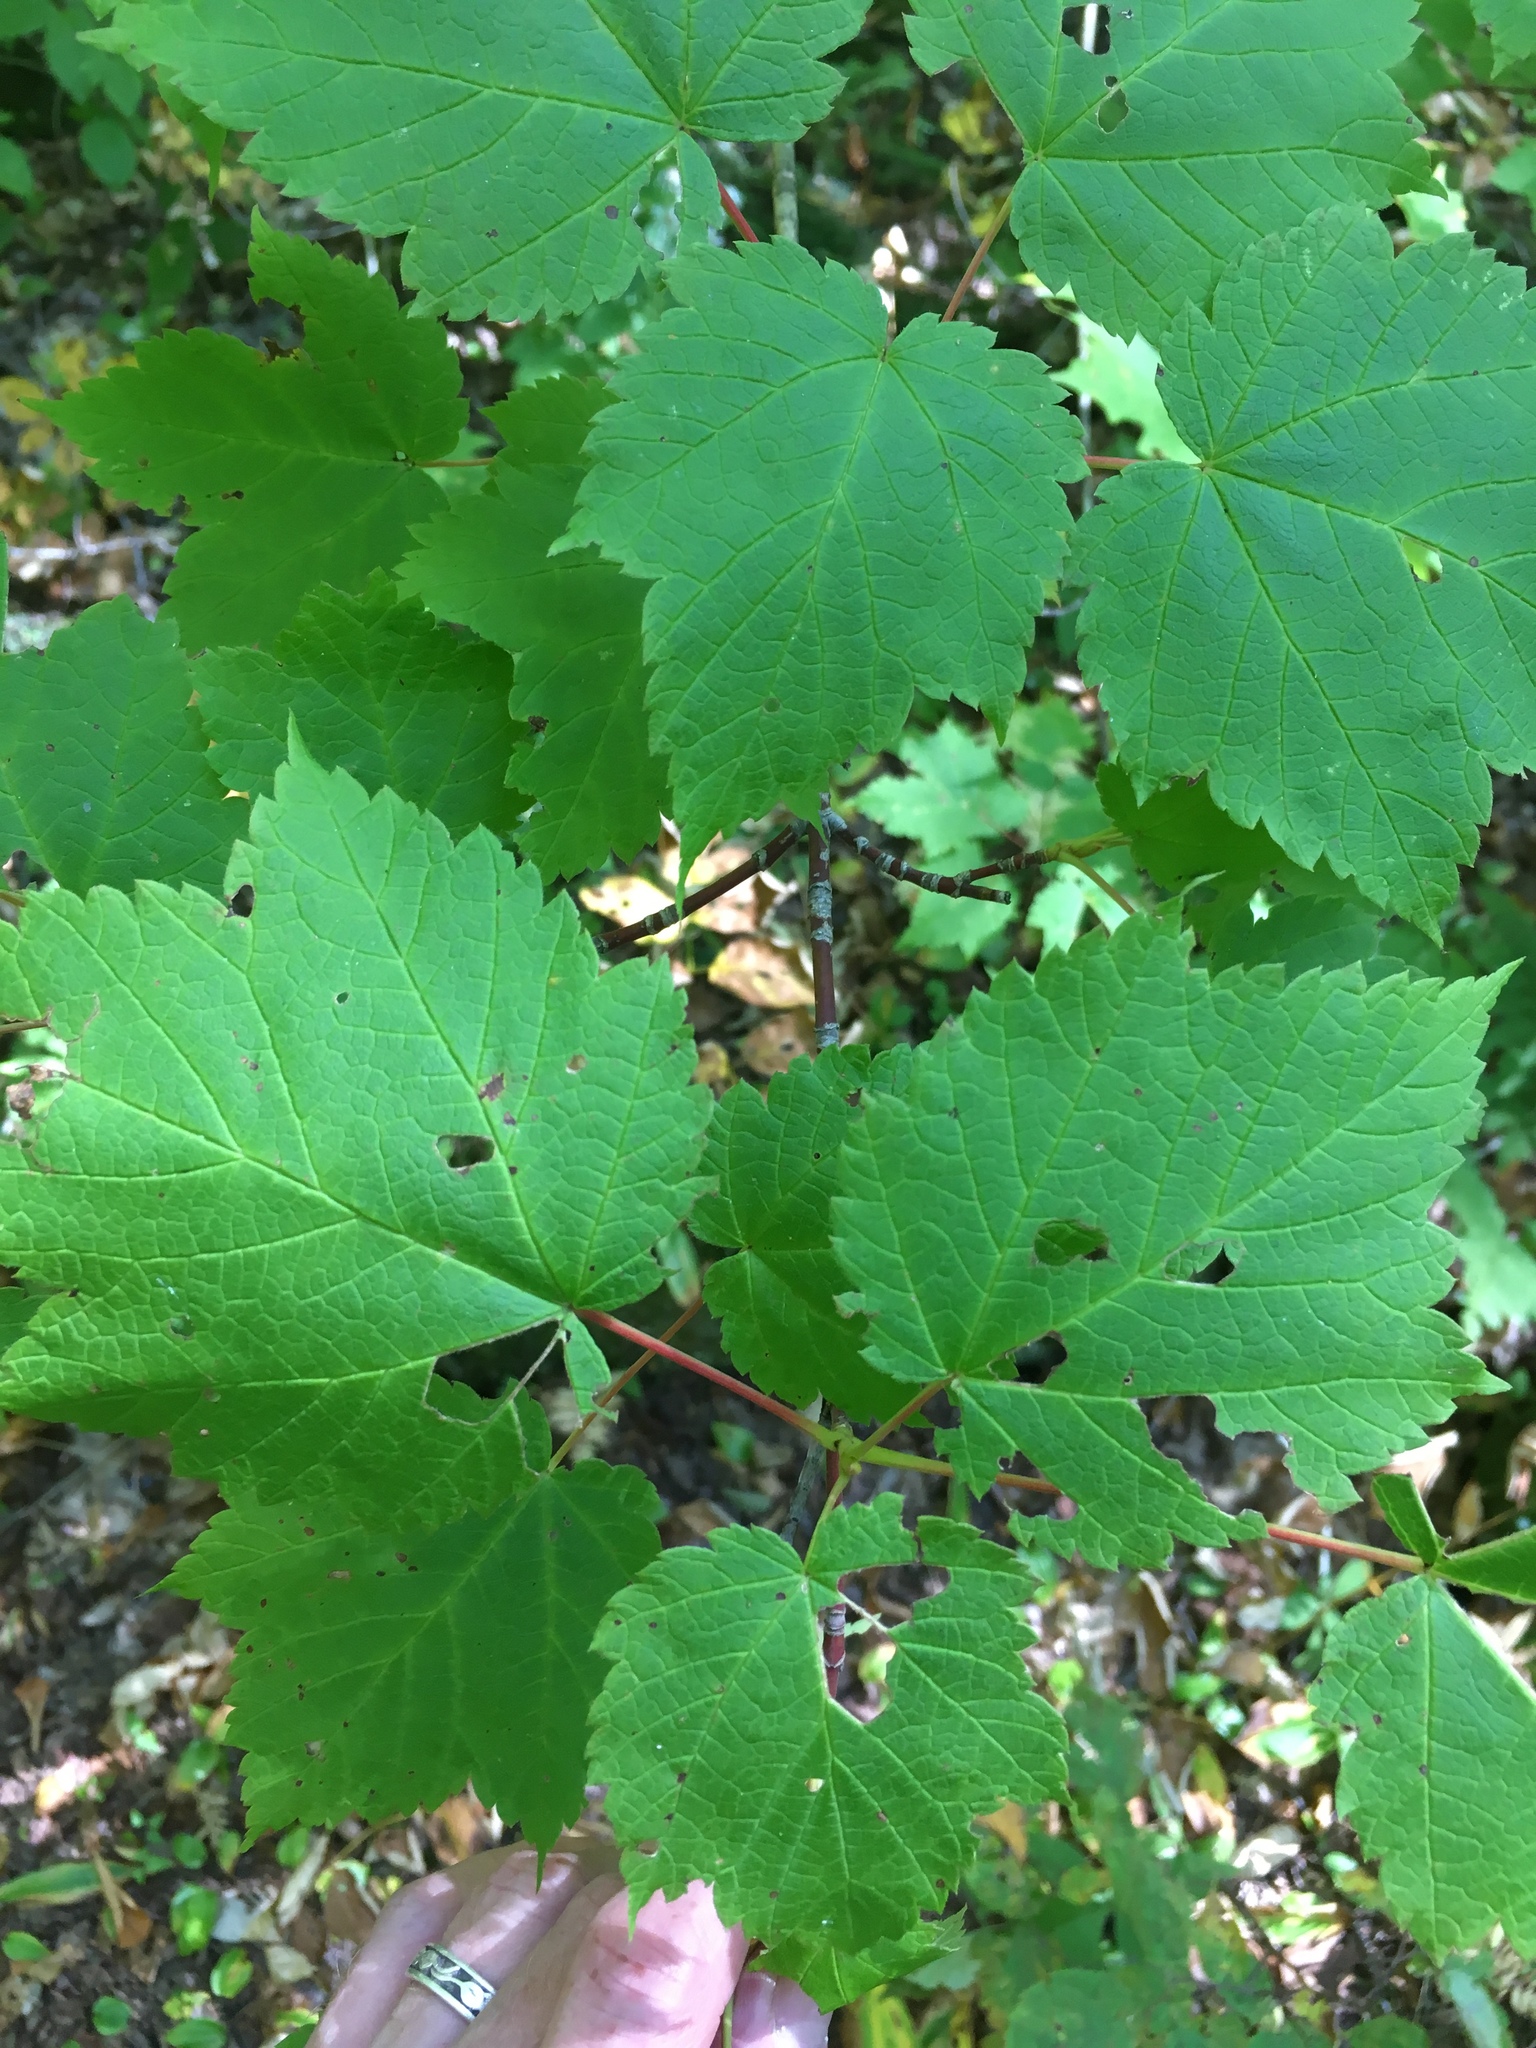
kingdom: Plantae
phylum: Tracheophyta
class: Magnoliopsida
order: Sapindales
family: Sapindaceae
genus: Acer
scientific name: Acer spicatum
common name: Mountain maple
